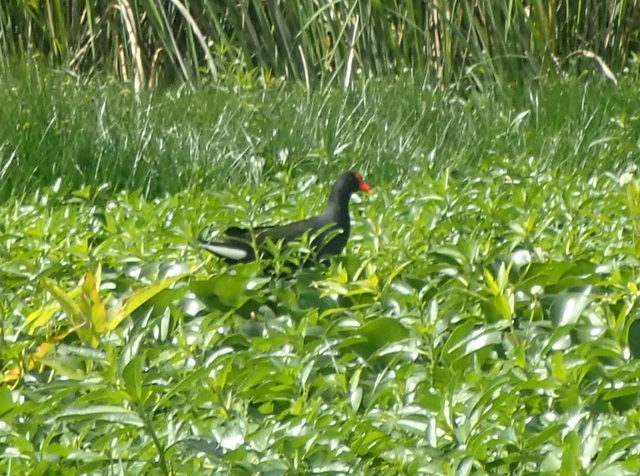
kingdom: Animalia
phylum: Chordata
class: Aves
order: Gruiformes
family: Rallidae
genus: Gallinula
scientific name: Gallinula chloropus
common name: Common moorhen
